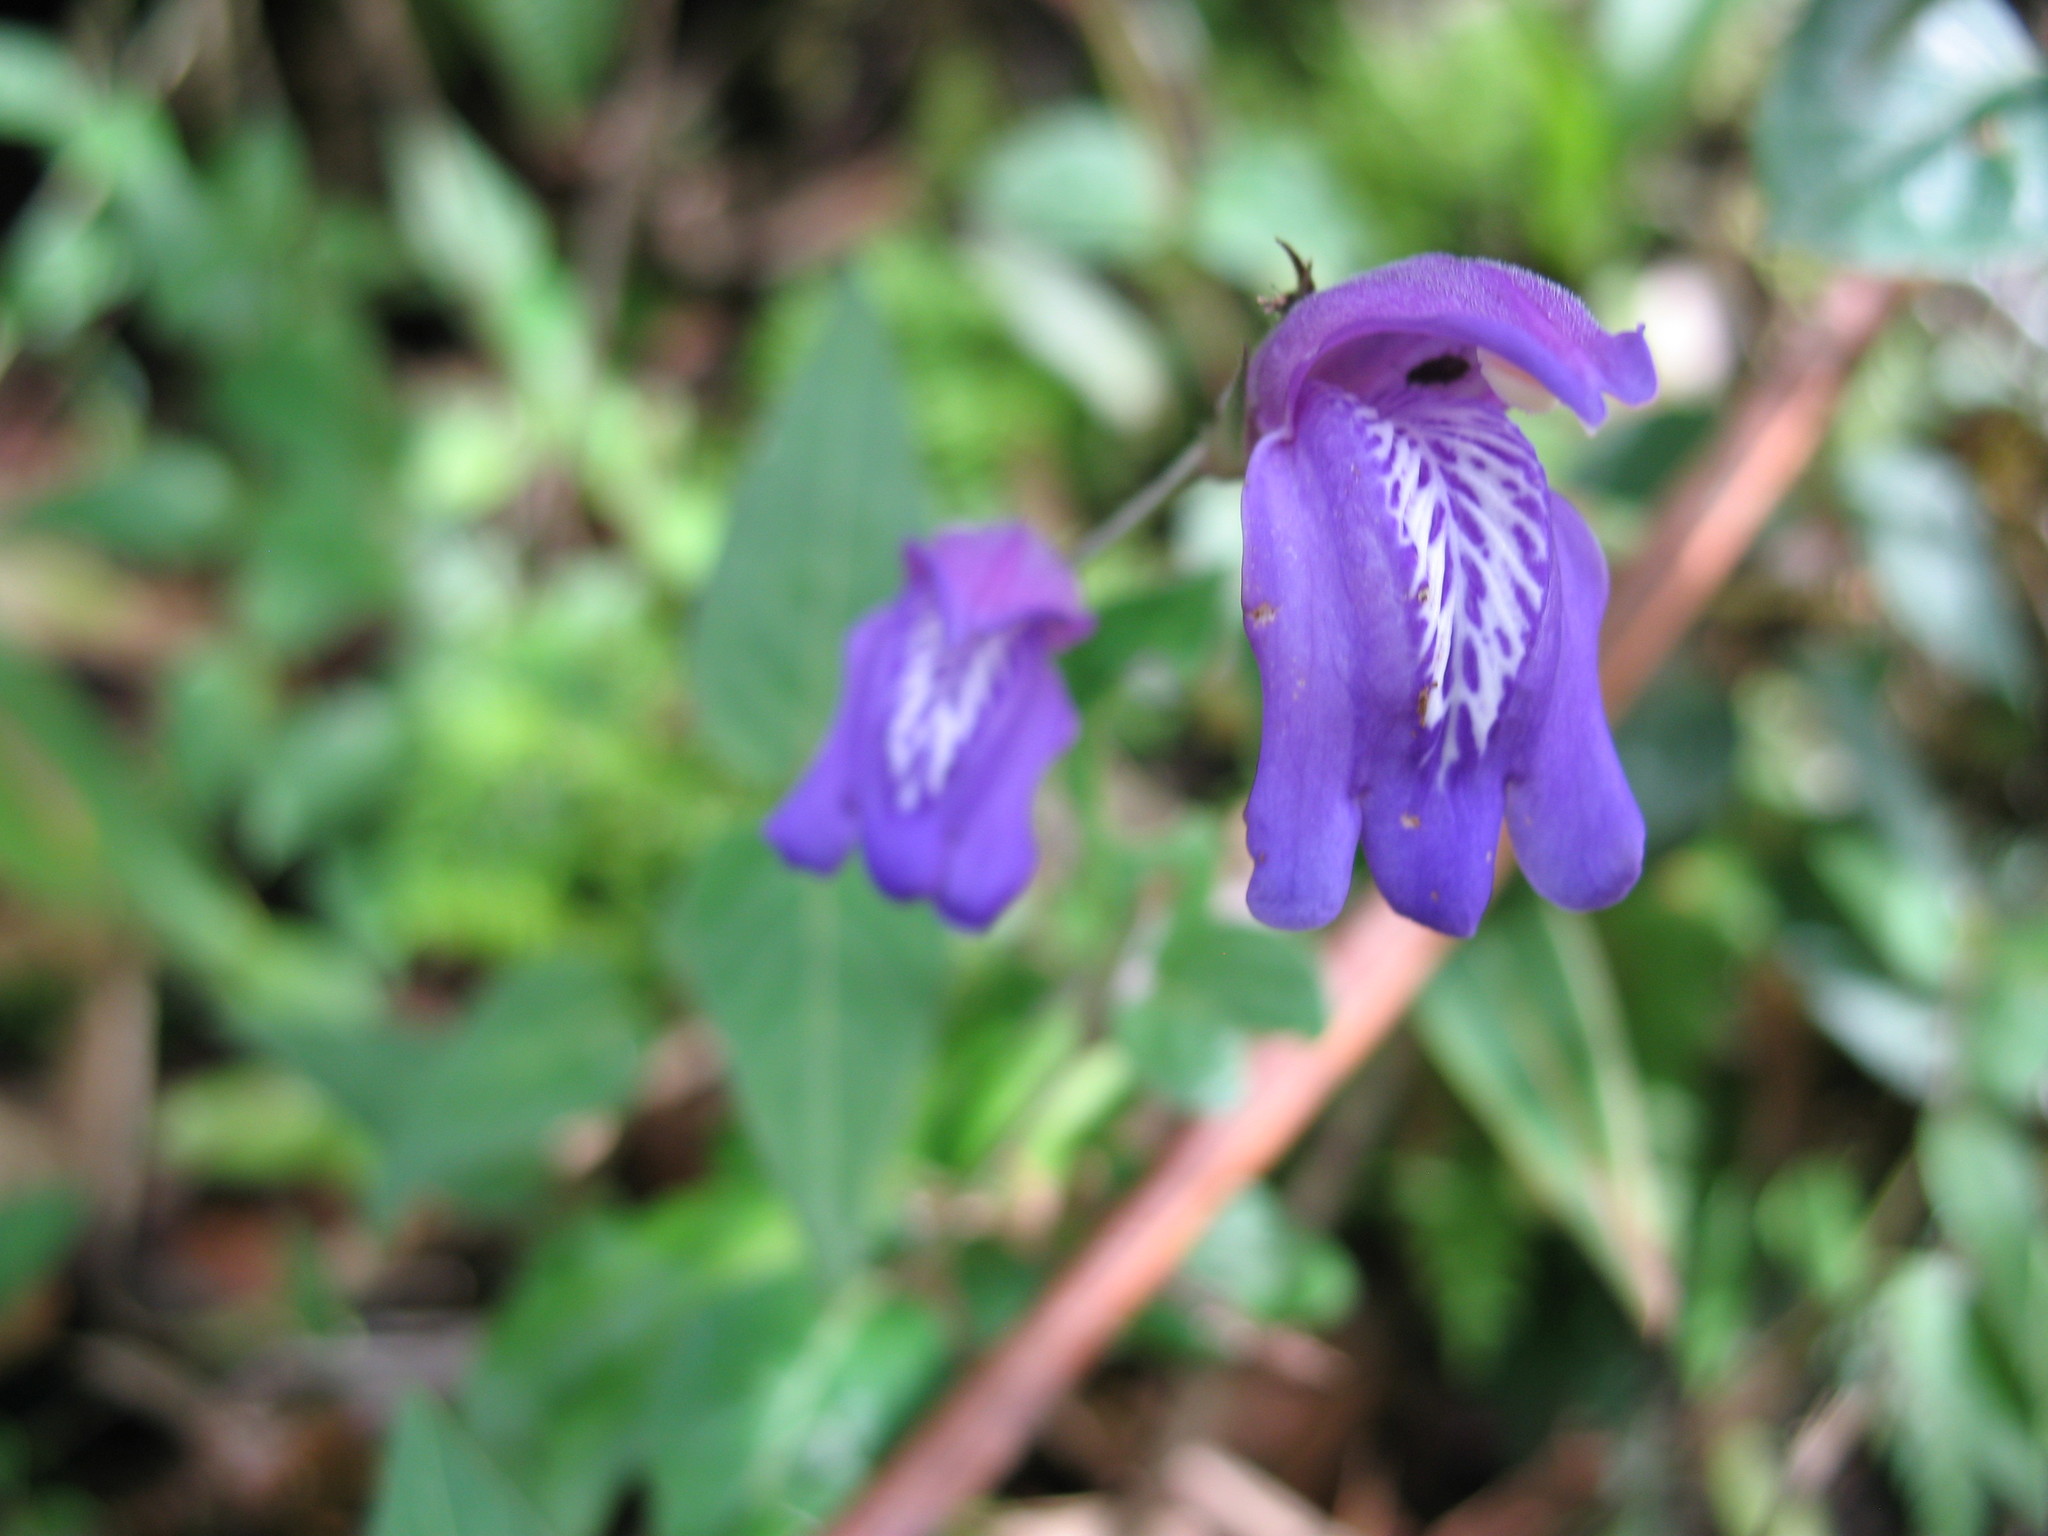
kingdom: Plantae
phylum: Tracheophyta
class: Magnoliopsida
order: Lamiales
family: Acanthaceae
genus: Justicia
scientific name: Justicia alpina
